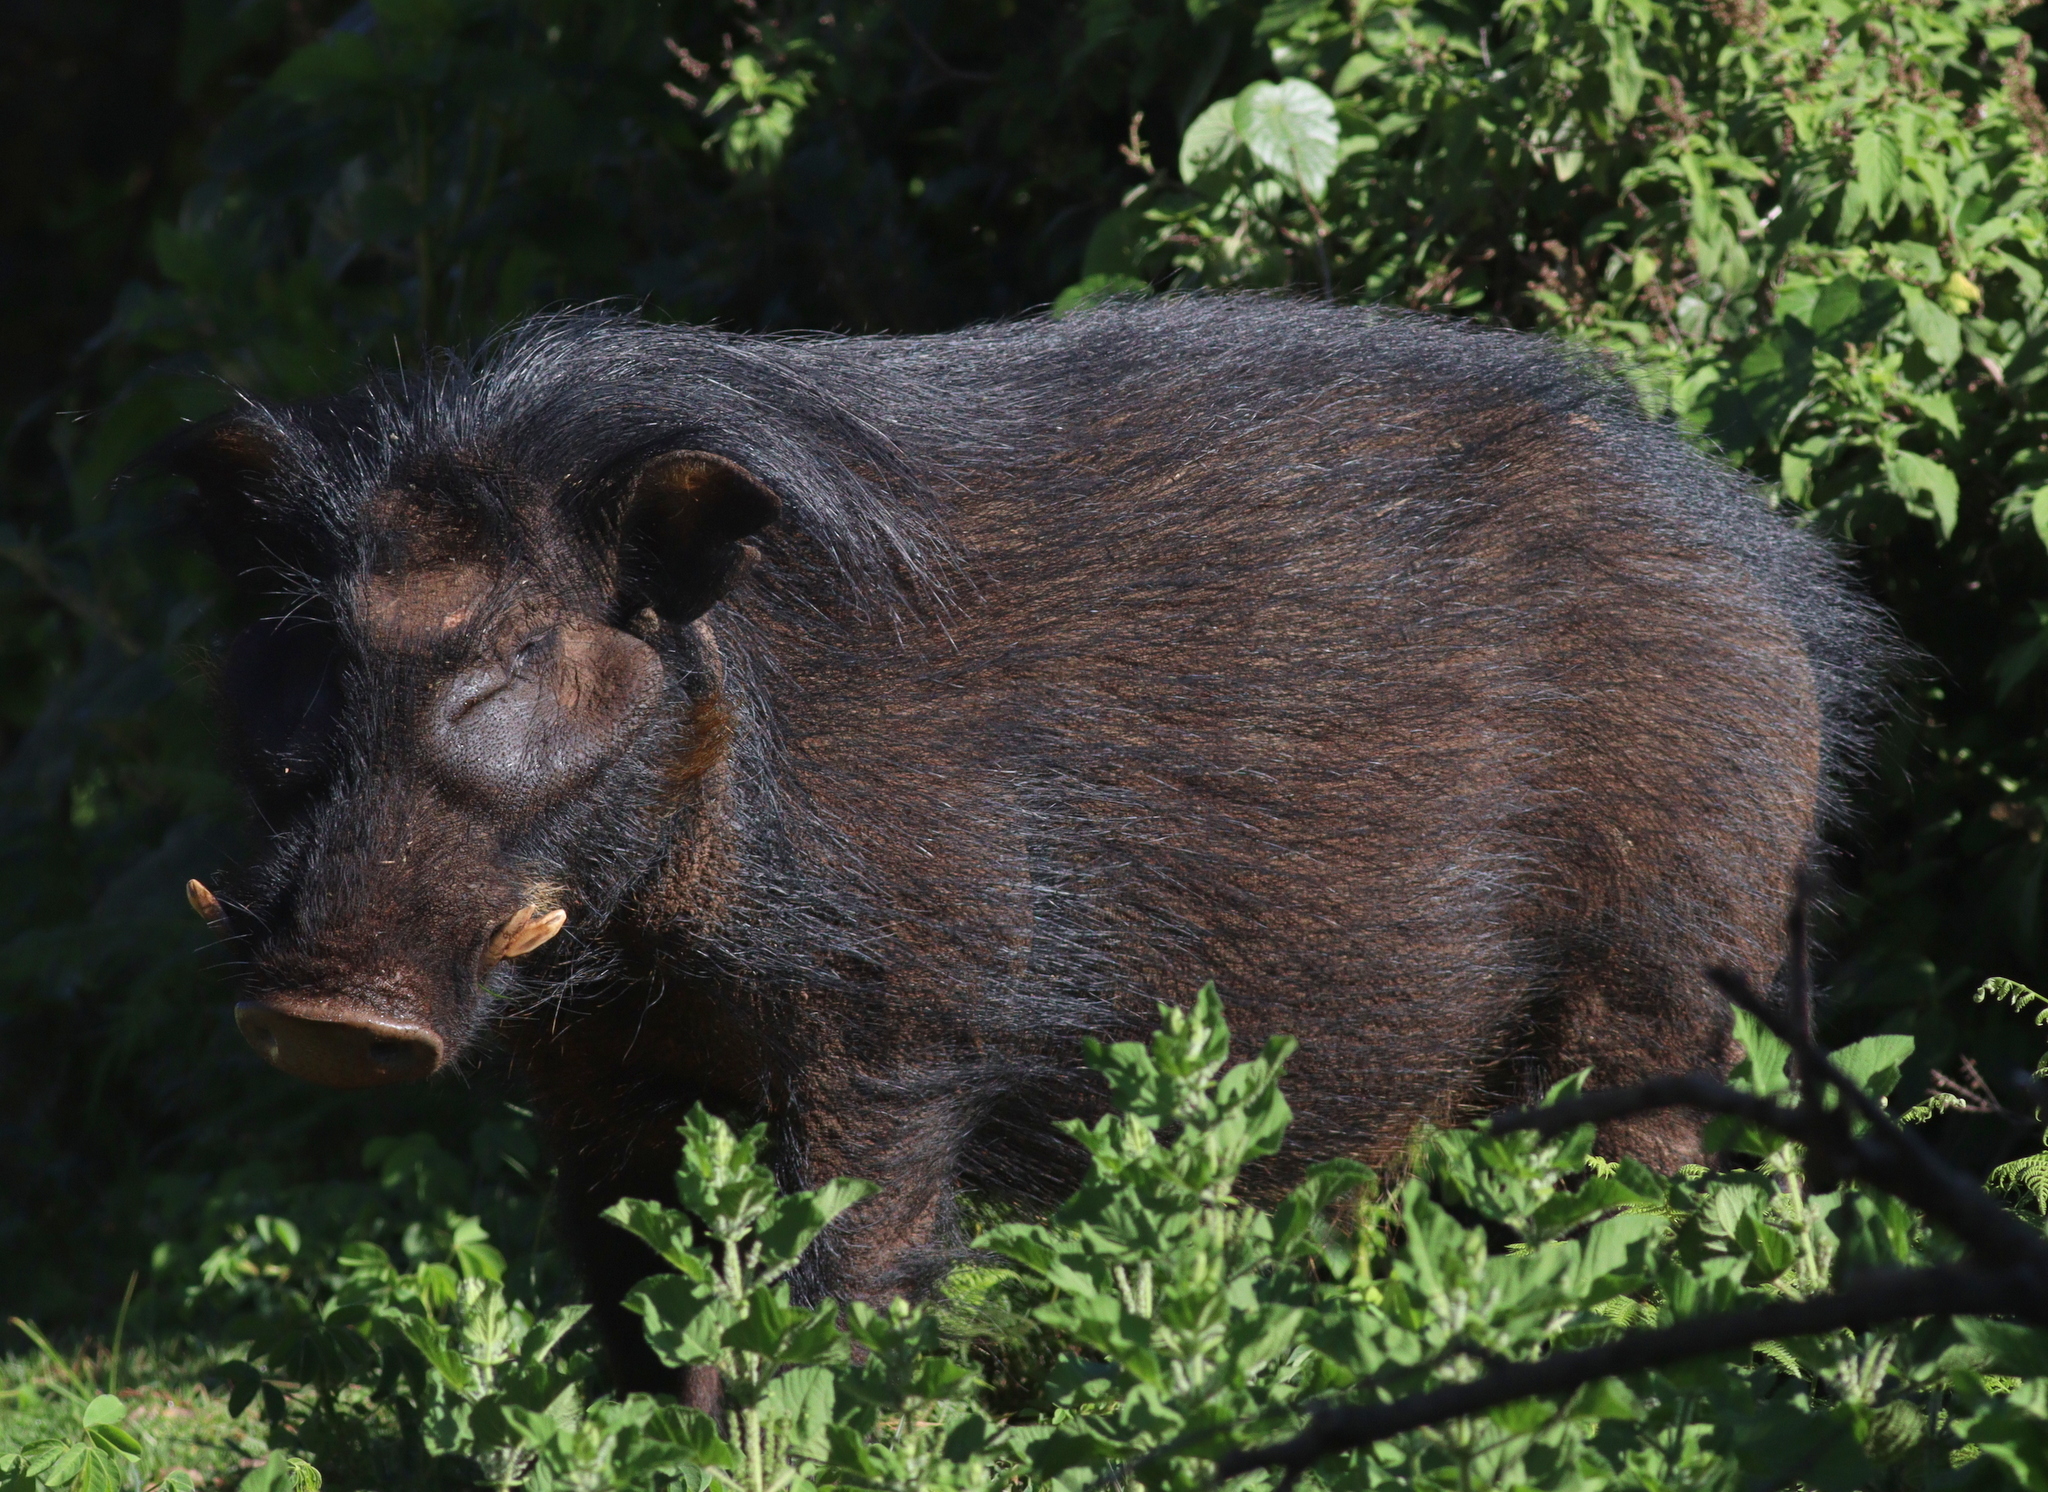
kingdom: Animalia
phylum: Chordata
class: Mammalia
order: Artiodactyla
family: Suidae
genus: Hylochoerus
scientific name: Hylochoerus meinertzhageni
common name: Giant forest hog
